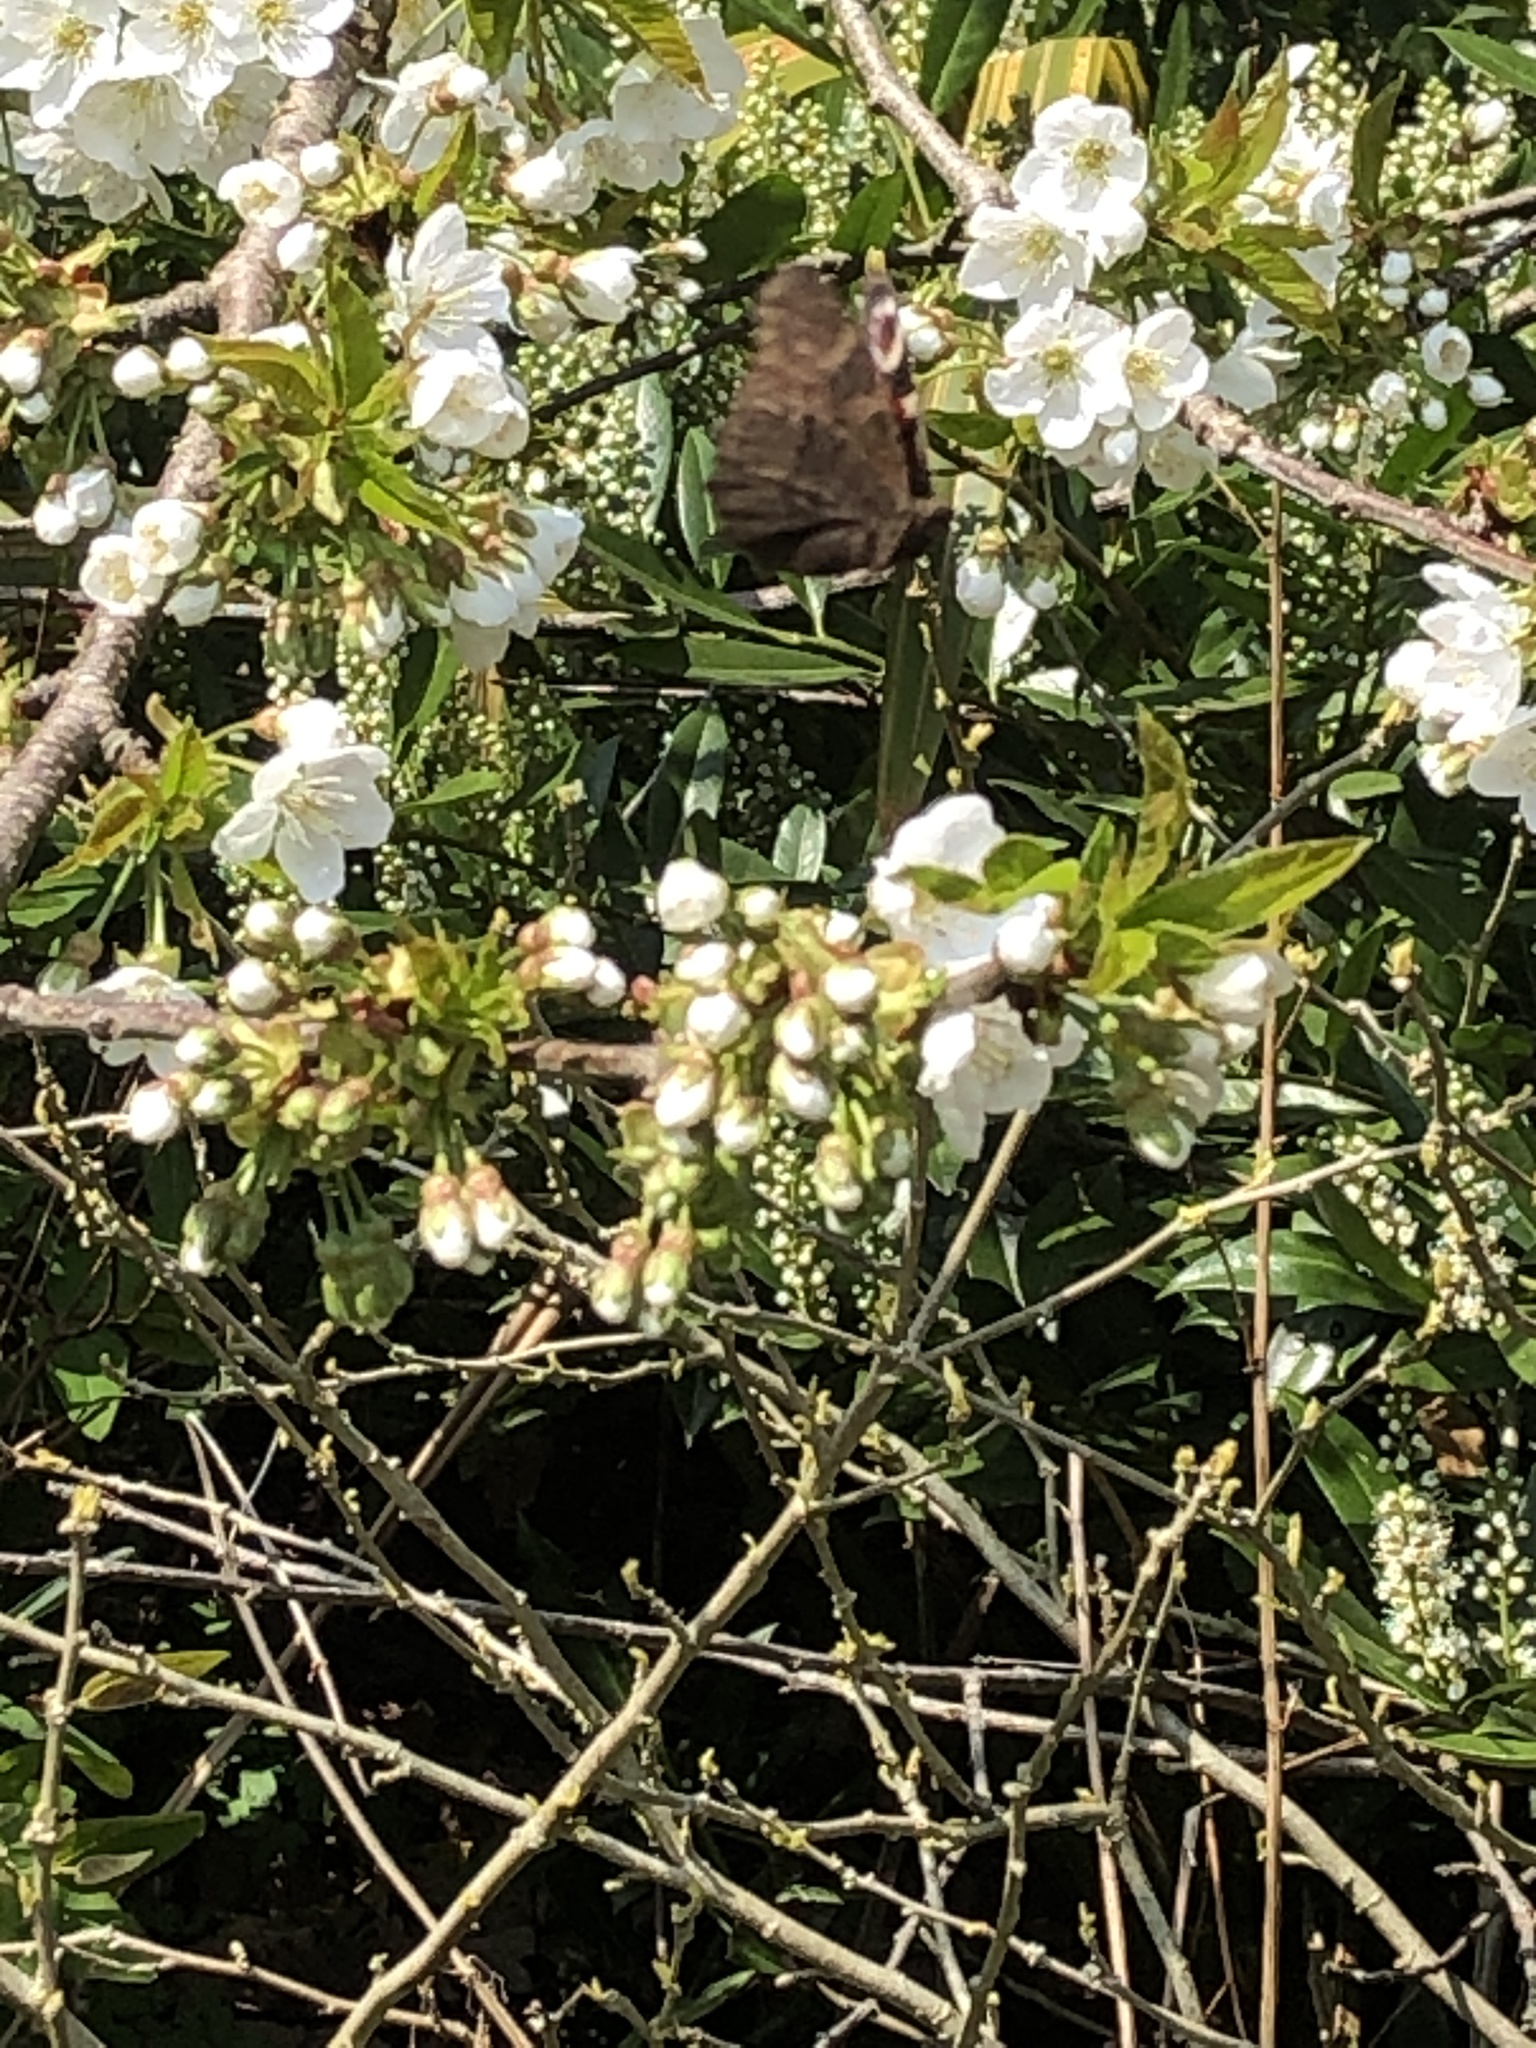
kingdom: Animalia
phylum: Arthropoda
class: Insecta
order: Lepidoptera
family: Nymphalidae
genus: Aglais
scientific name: Aglais io
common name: Peacock
